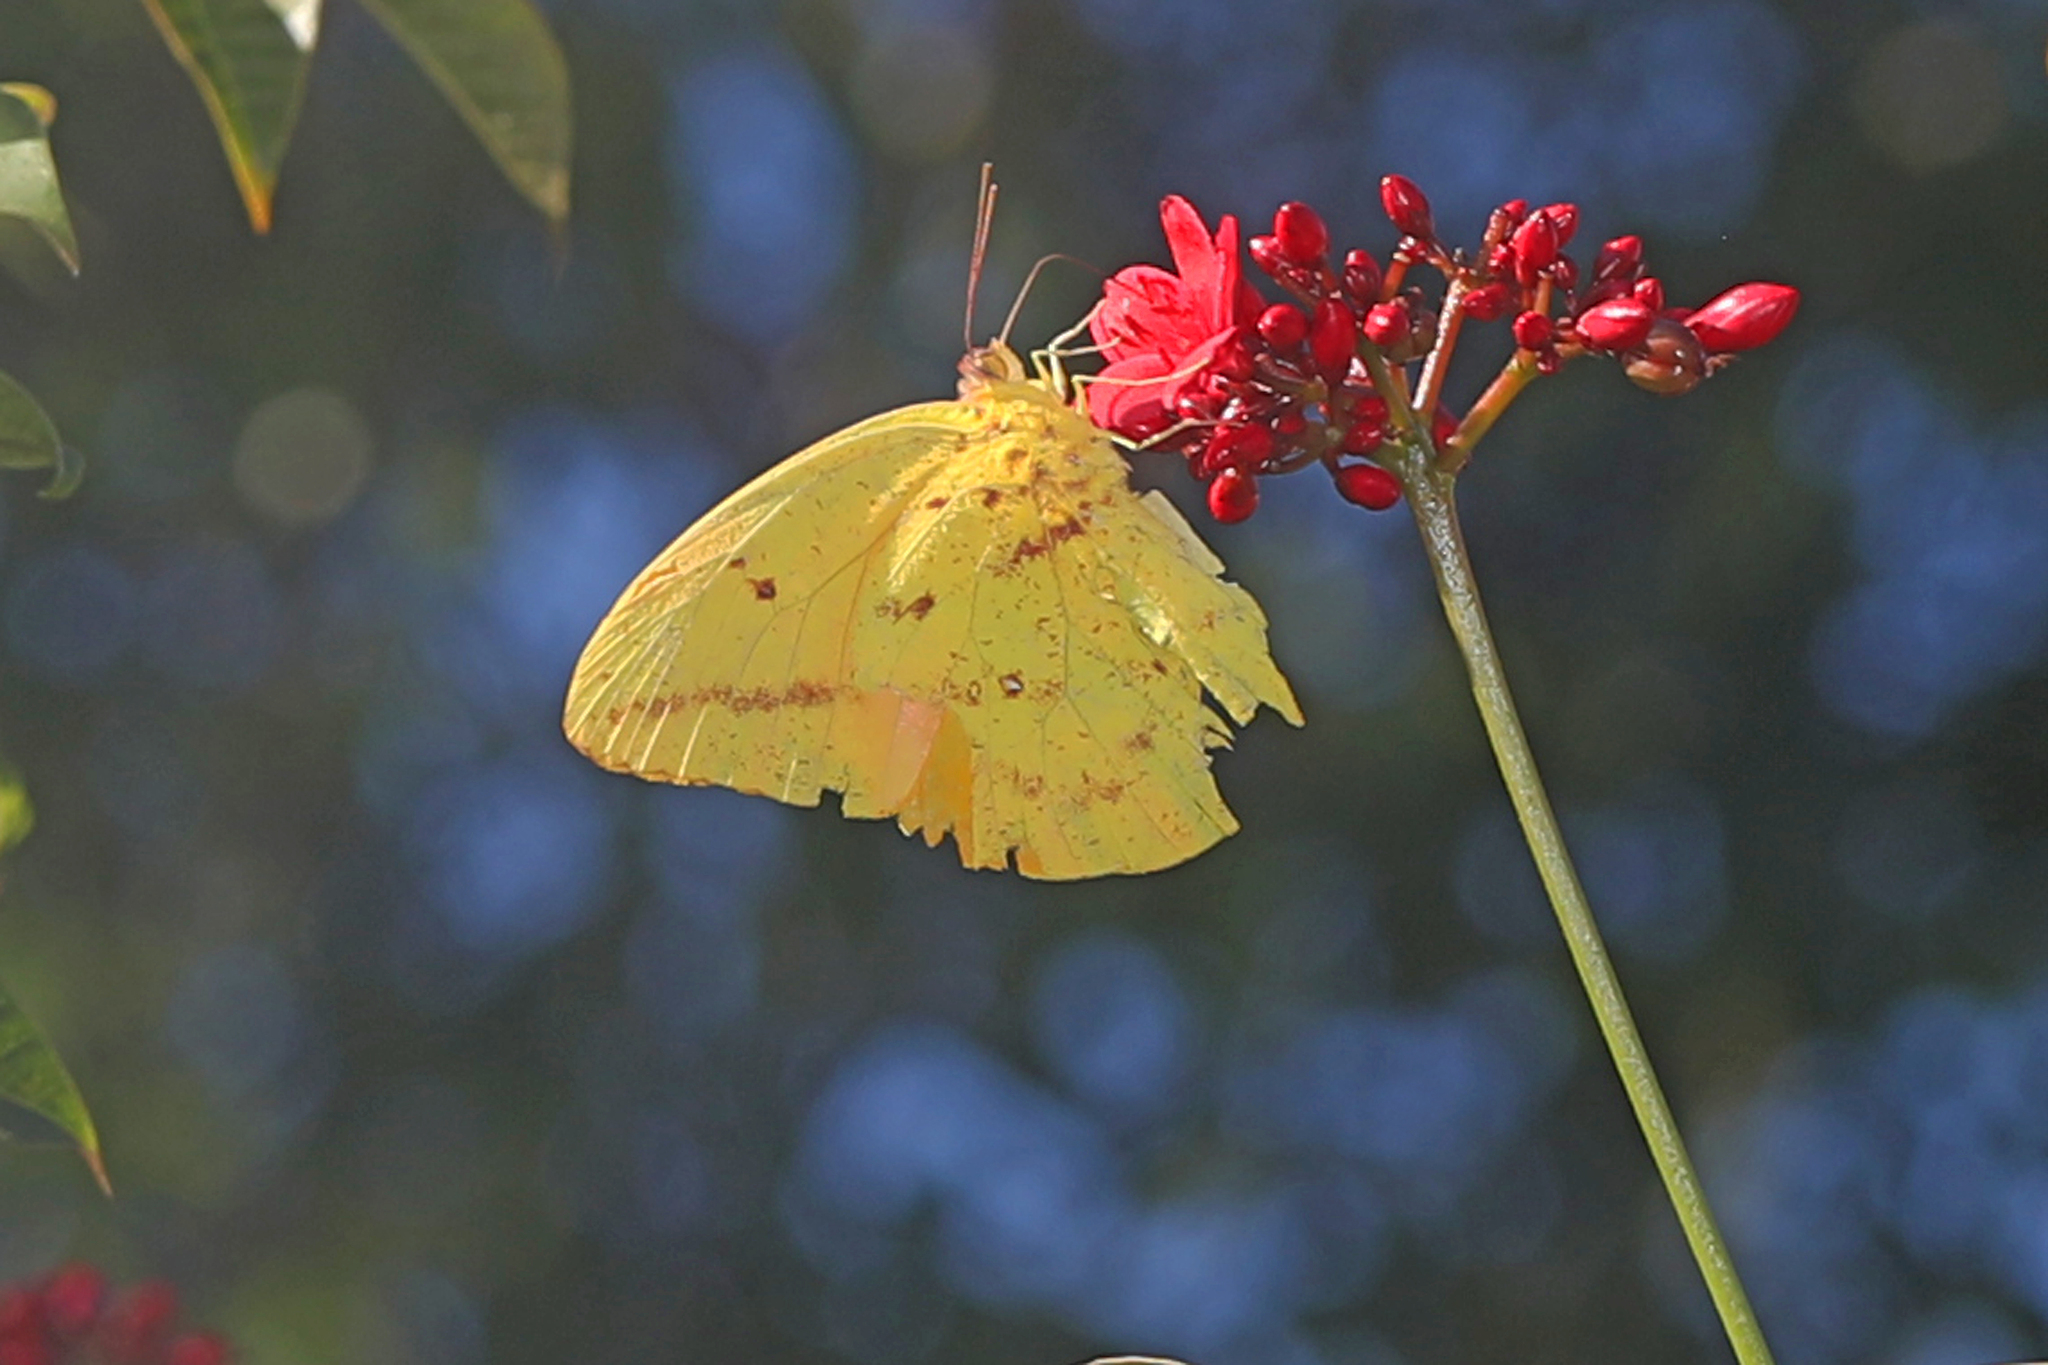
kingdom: Animalia
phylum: Arthropoda
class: Insecta
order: Lepidoptera
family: Pieridae
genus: Phoebis
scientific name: Phoebis agarithe
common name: Large orange sulphur
